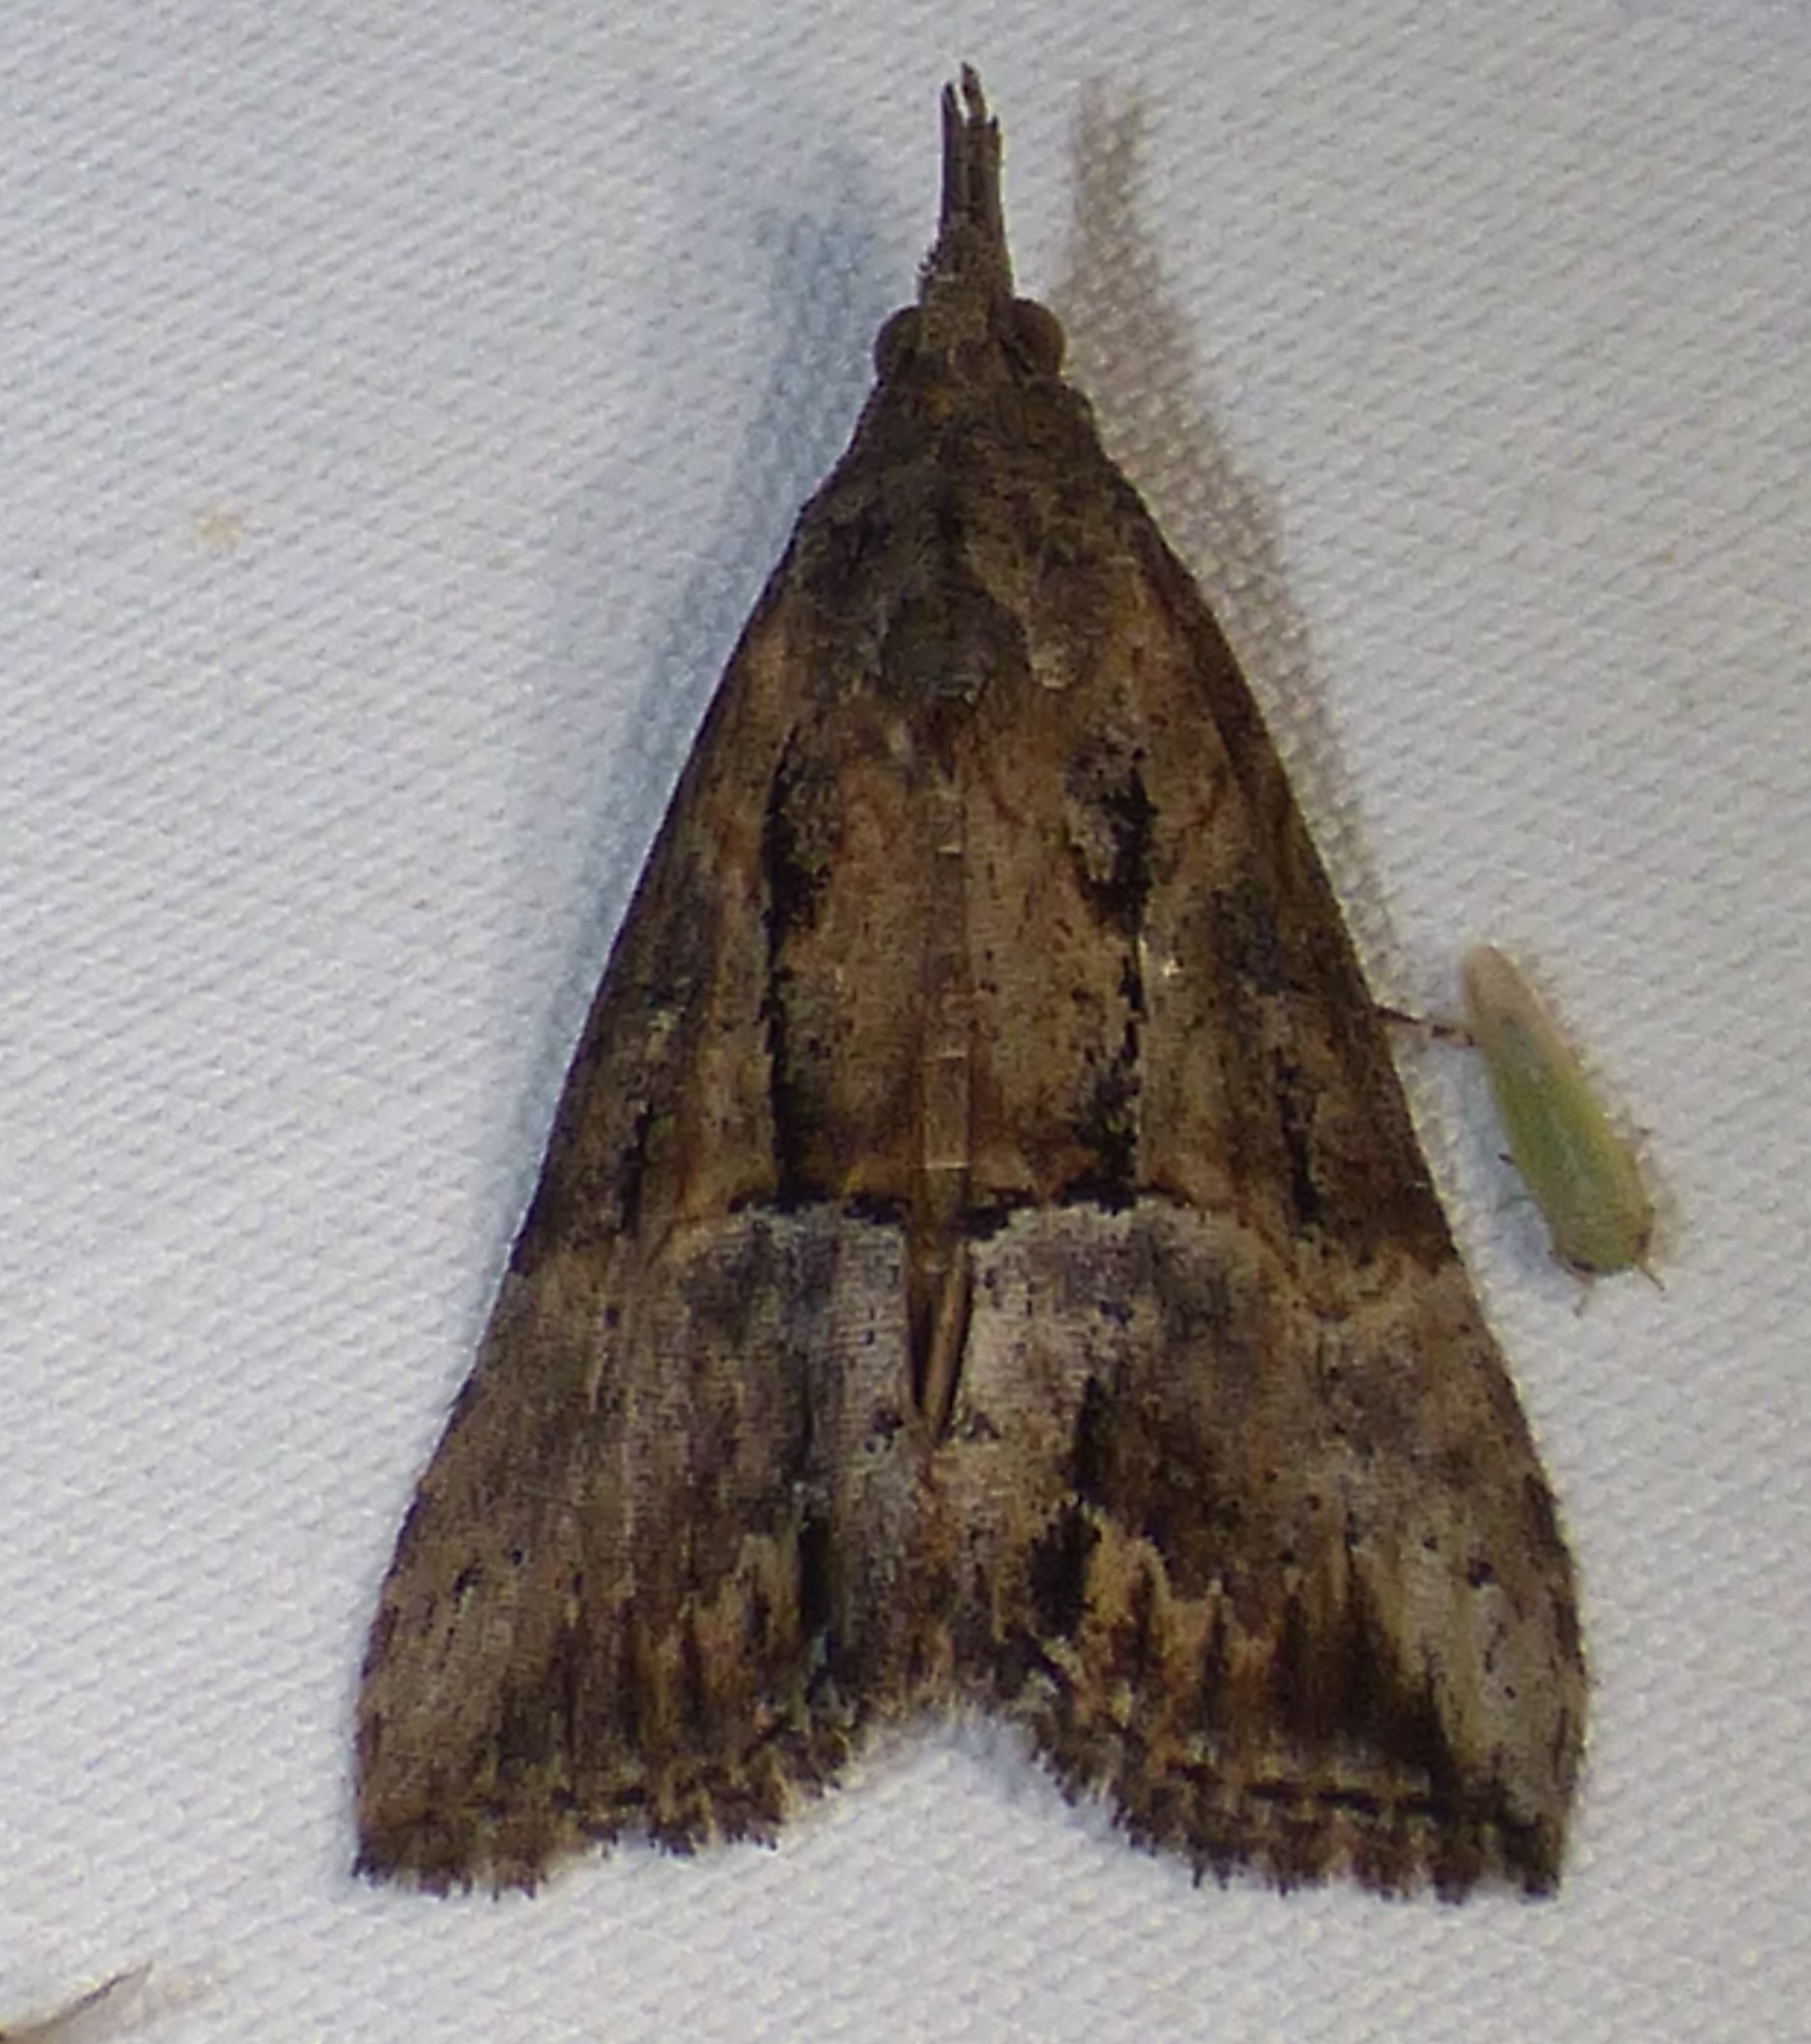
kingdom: Animalia
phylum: Arthropoda
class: Insecta
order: Lepidoptera
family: Erebidae
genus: Hypena
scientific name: Hypena scabra
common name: Green cloverworm
